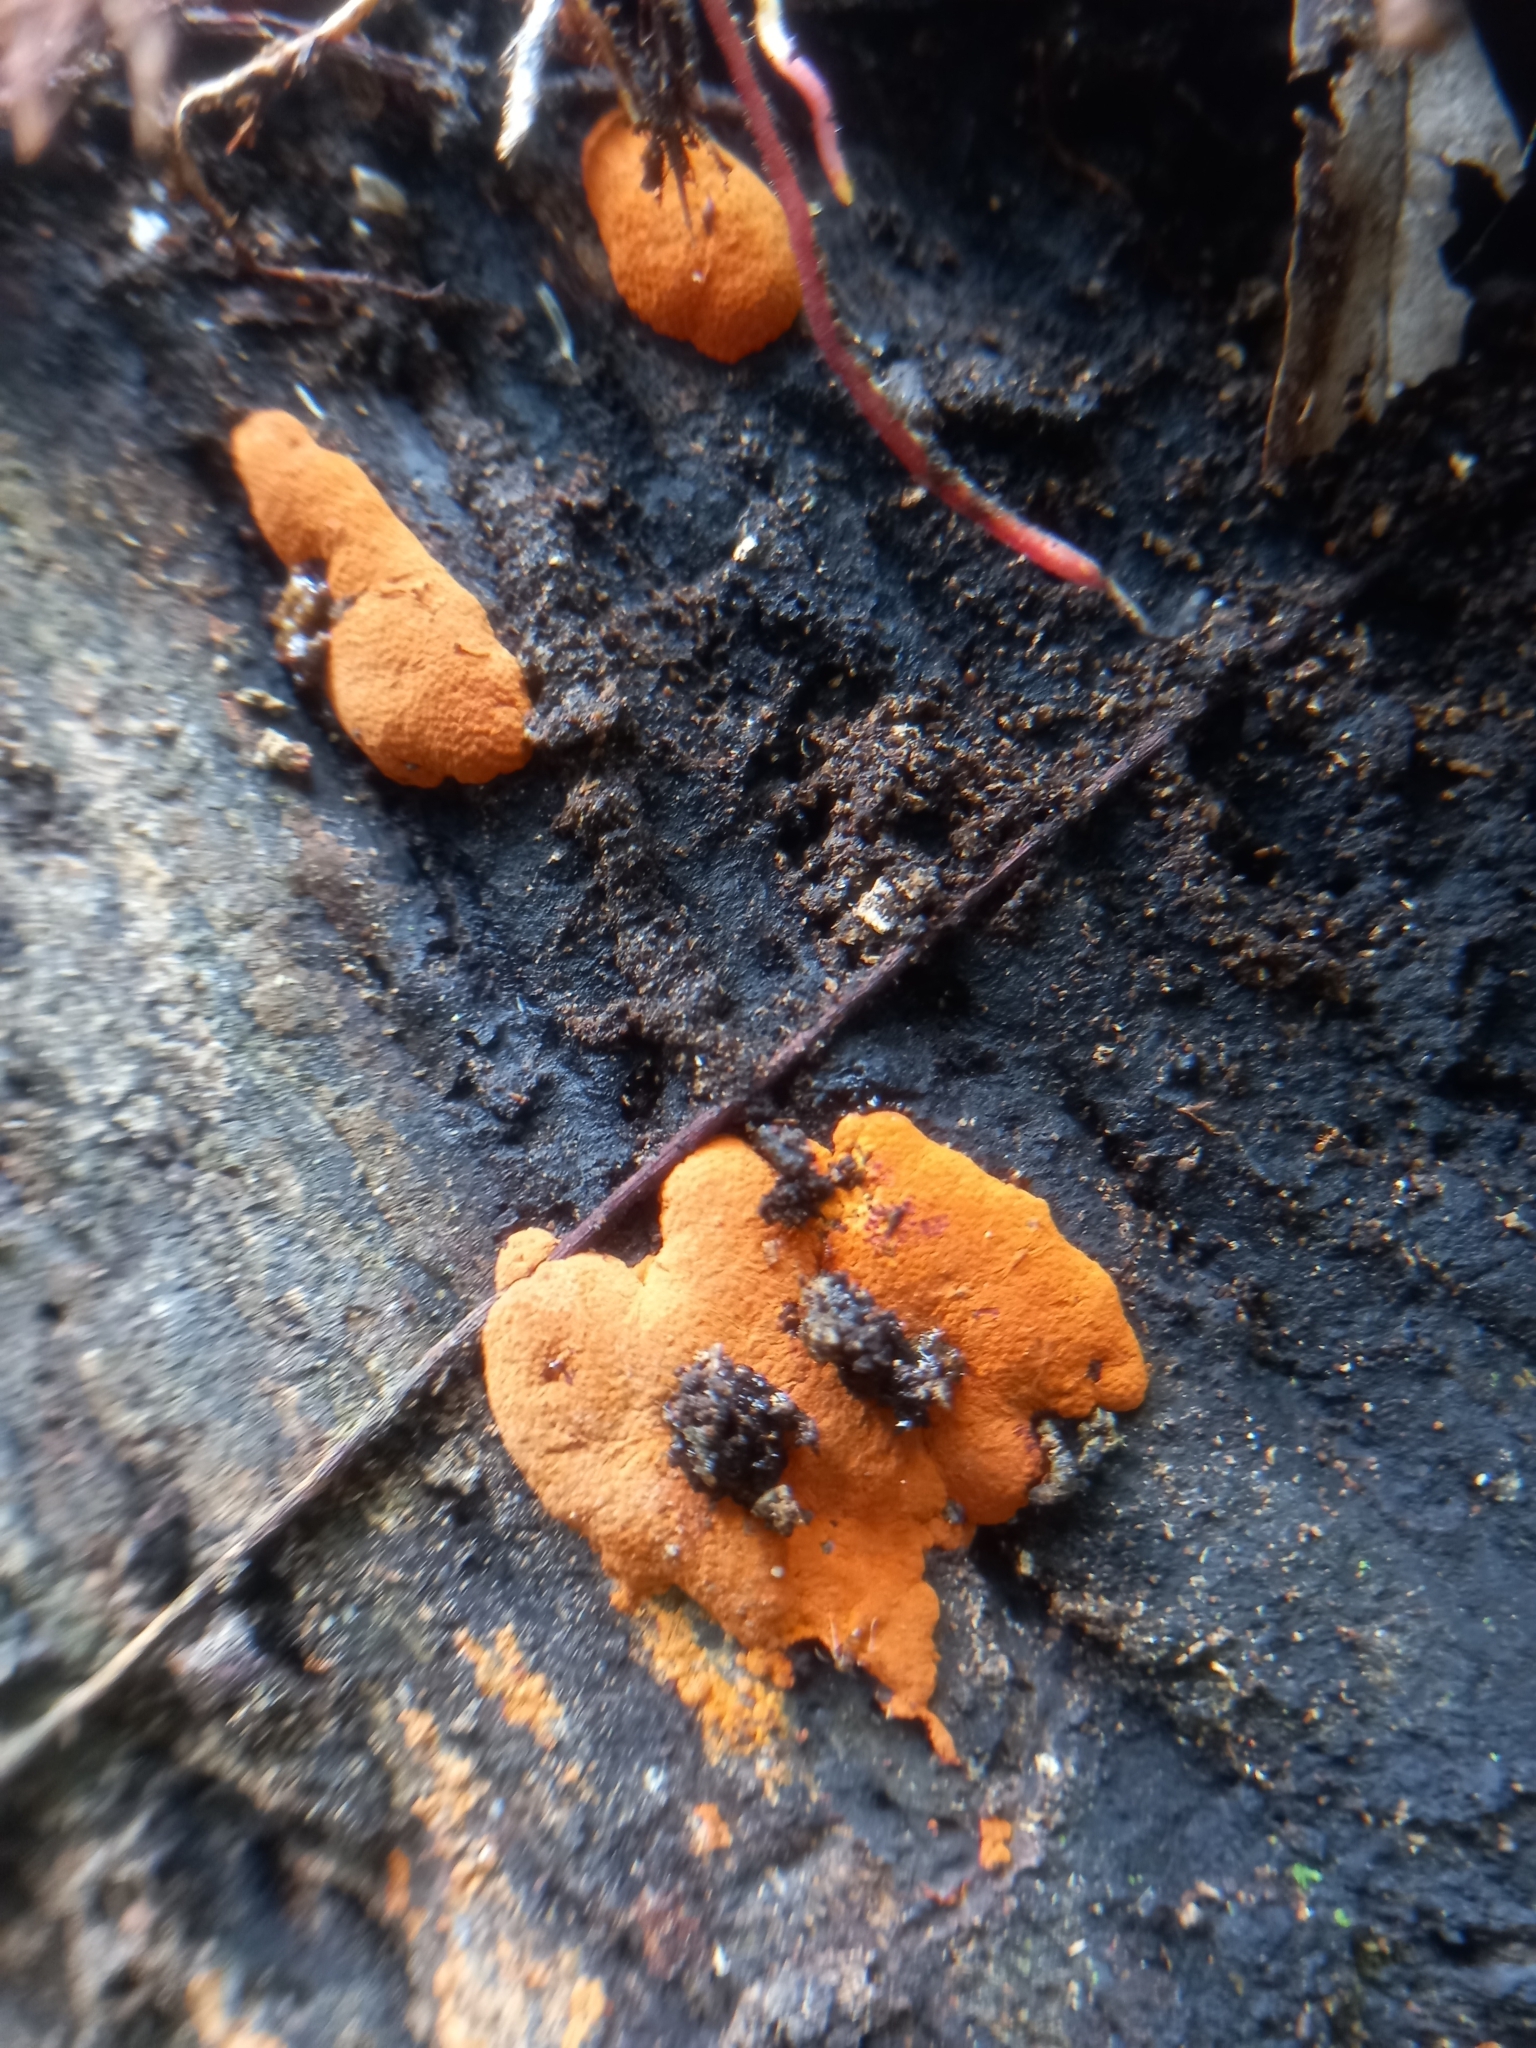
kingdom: Fungi
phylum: Ascomycota
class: Sordariomycetes
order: Xylariales
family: Hypoxylaceae
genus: Hypoxylon
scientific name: Hypoxylon haematostroma
